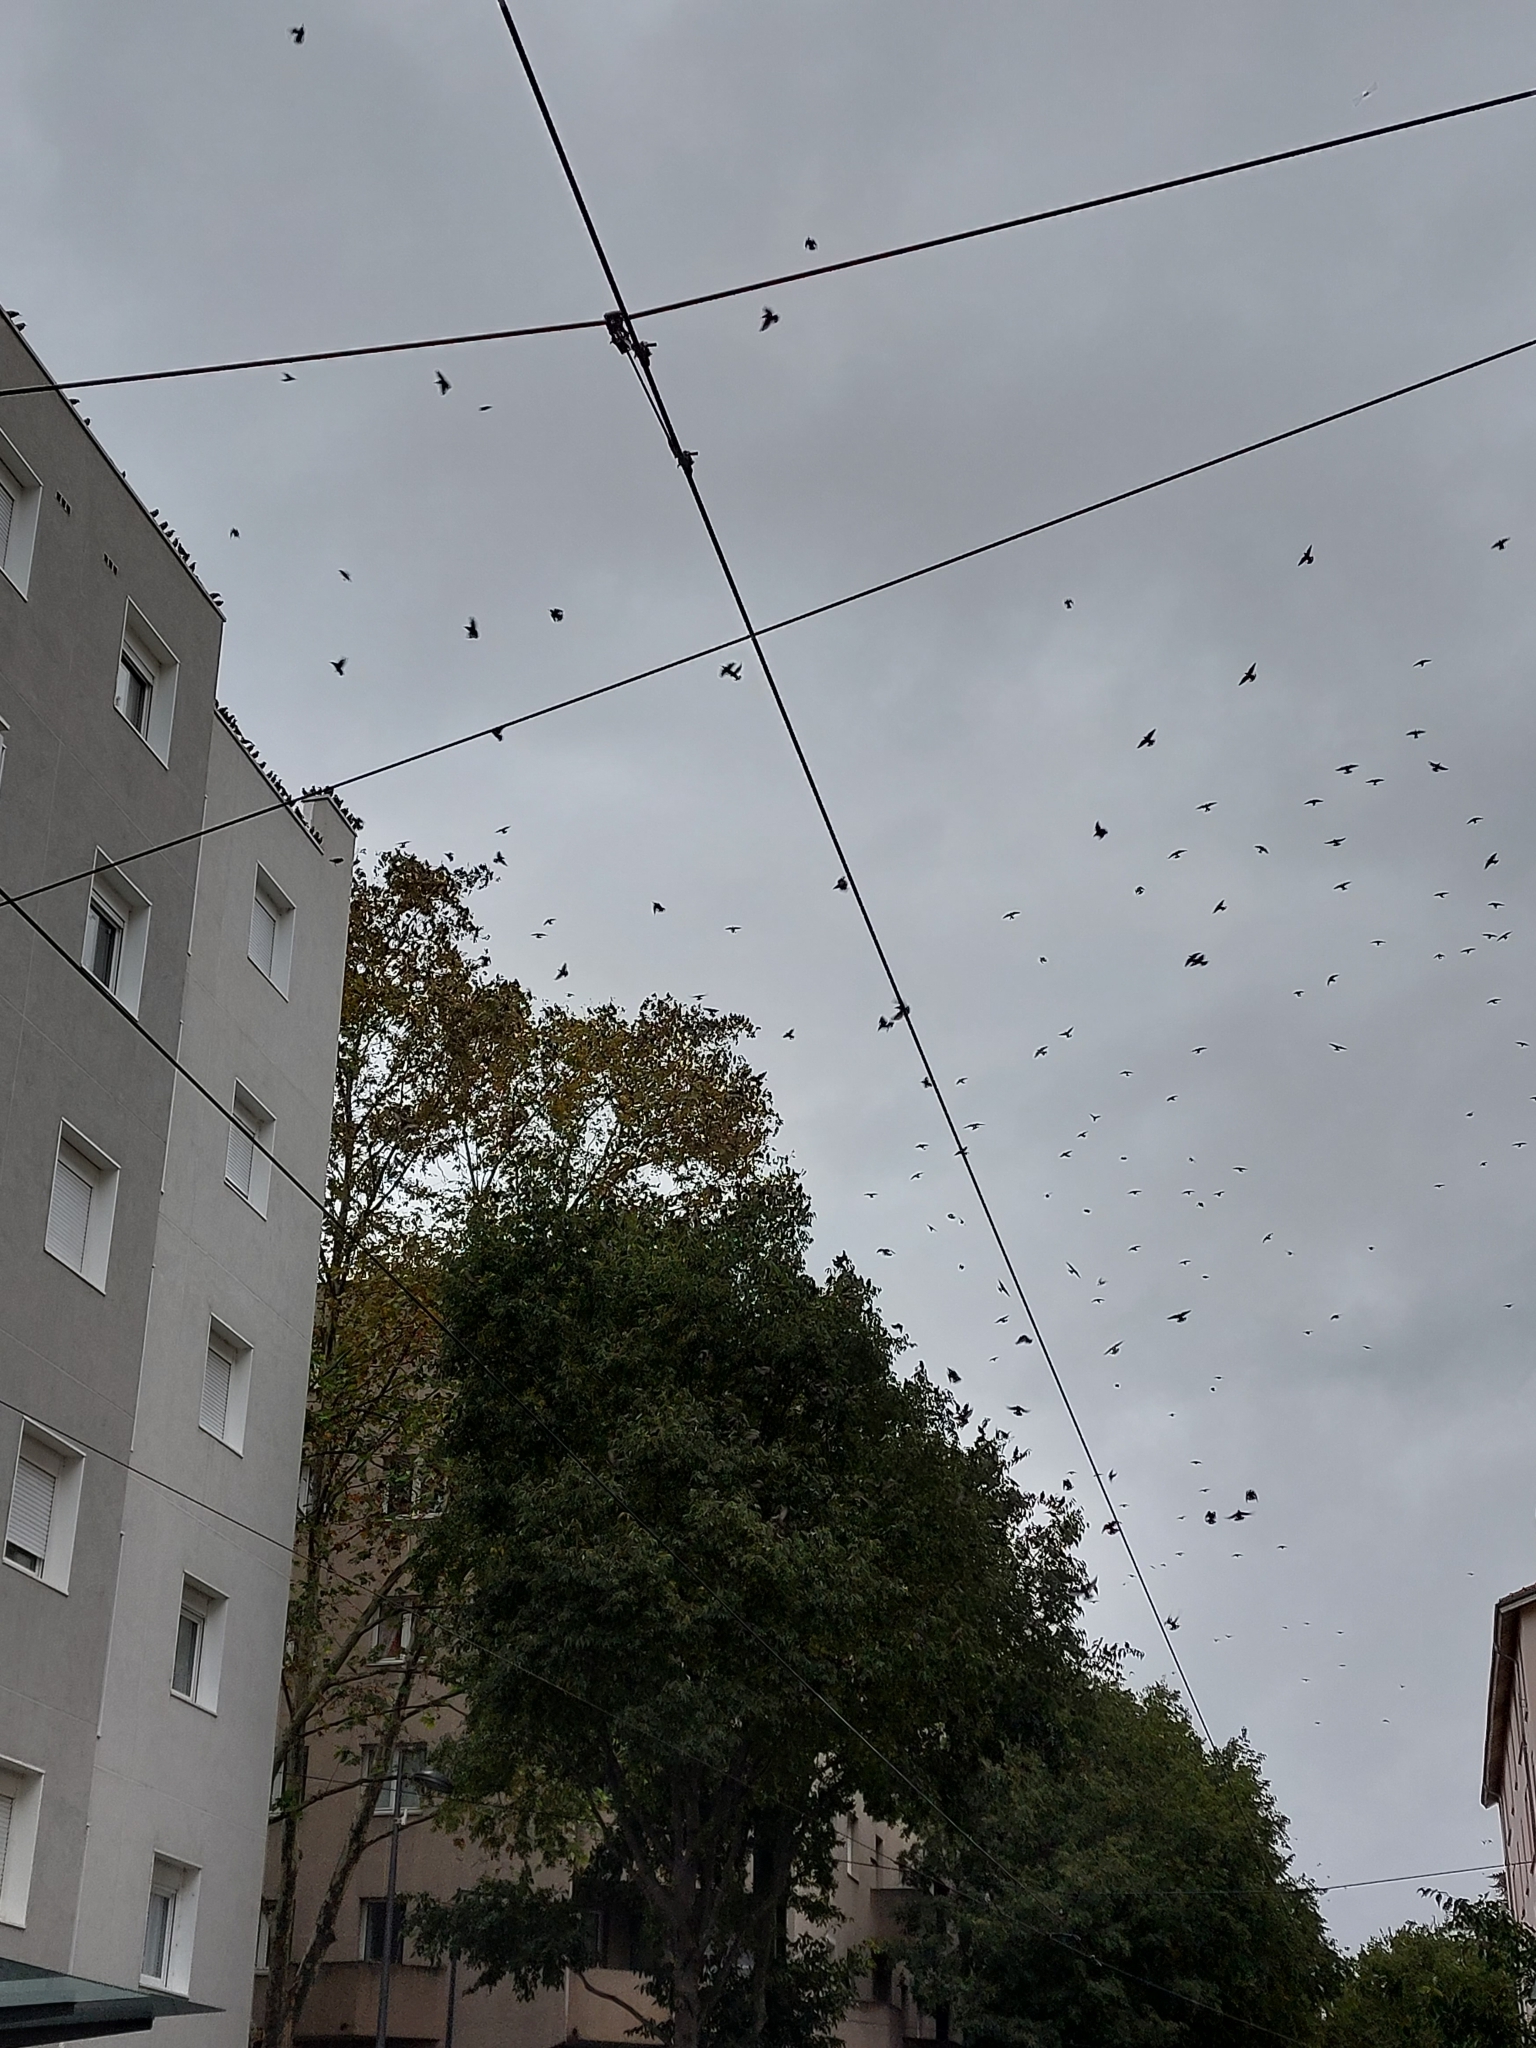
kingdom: Animalia
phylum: Chordata
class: Aves
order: Passeriformes
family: Sturnidae
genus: Sturnus
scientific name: Sturnus vulgaris
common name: Common starling
